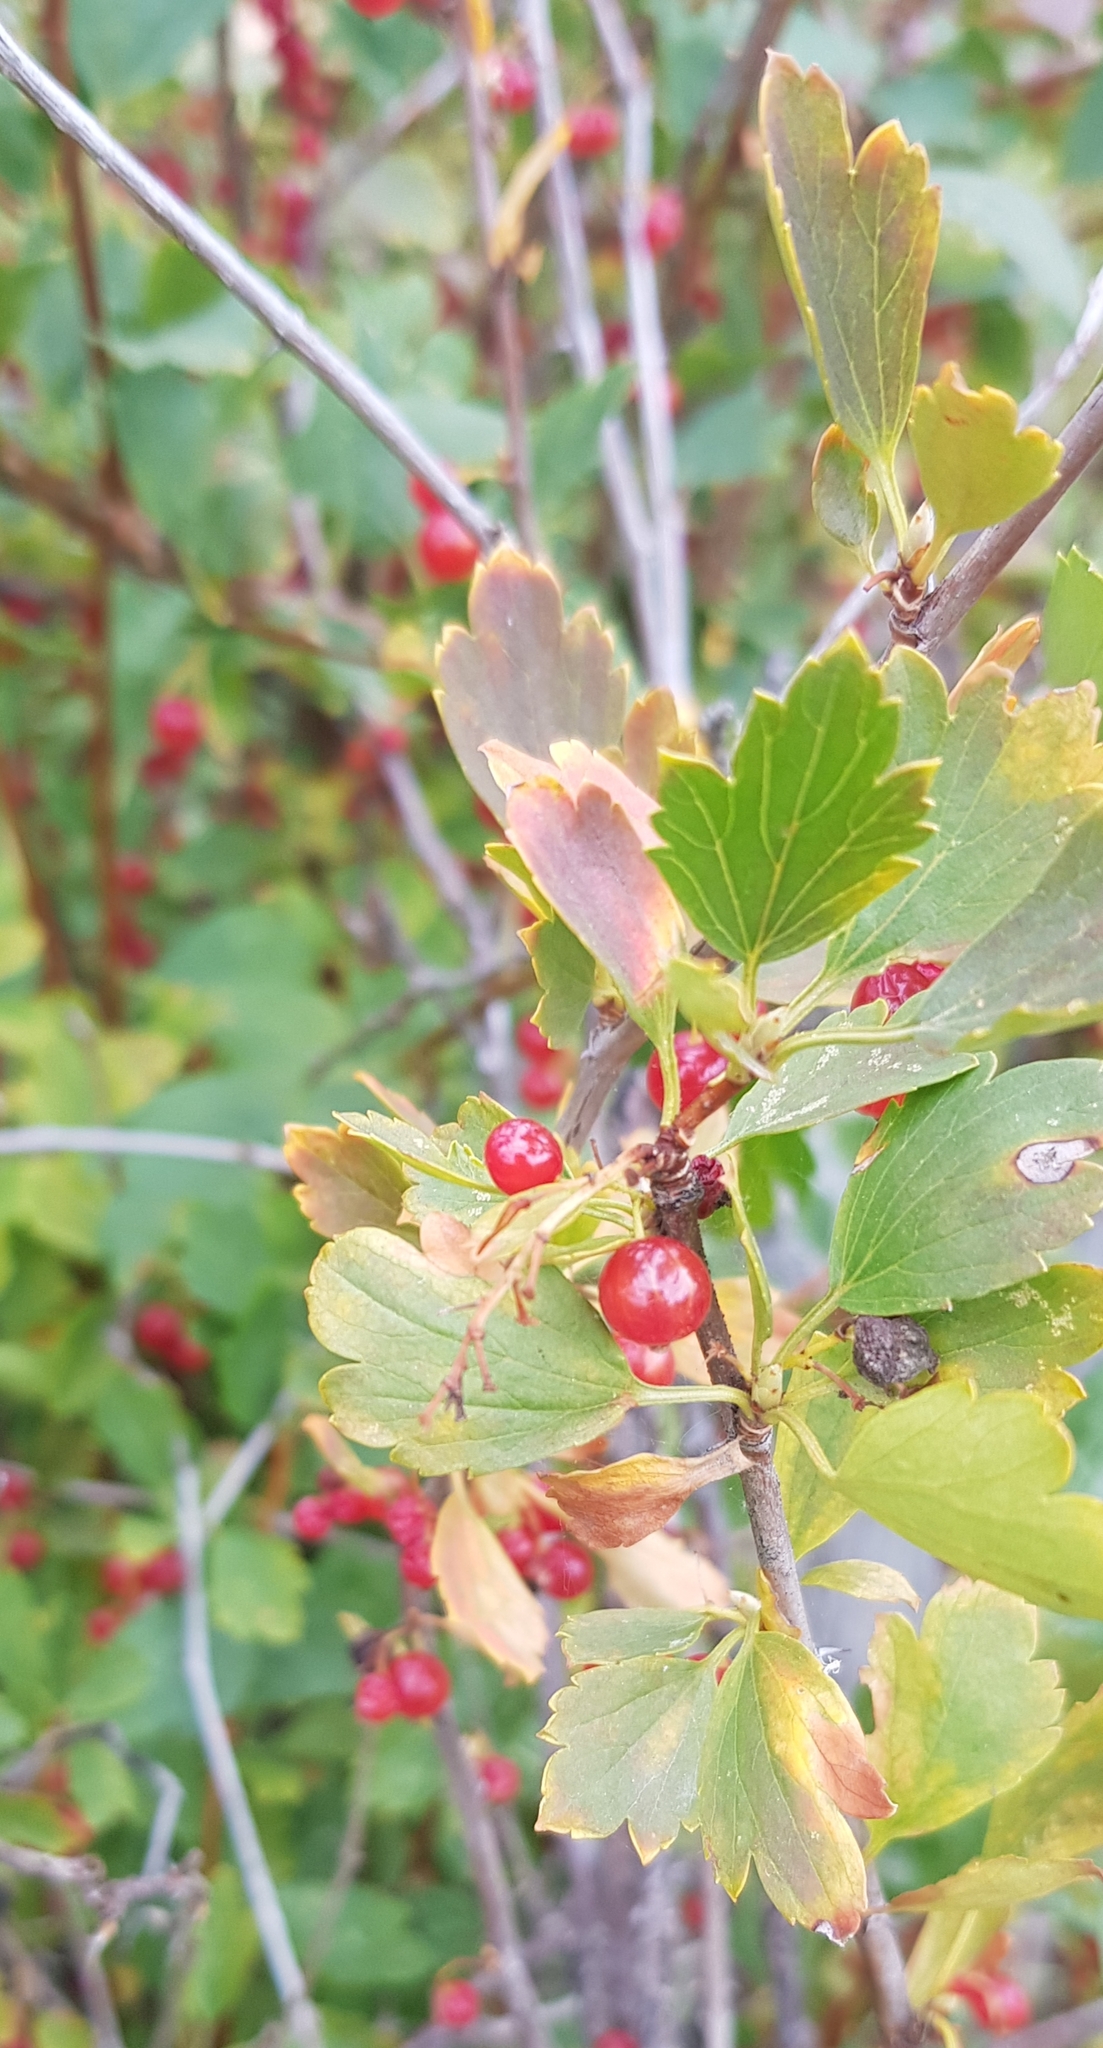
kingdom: Plantae
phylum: Tracheophyta
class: Magnoliopsida
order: Saxifragales
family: Grossulariaceae
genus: Ribes
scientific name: Ribes diacanthum
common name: Siberian currant
